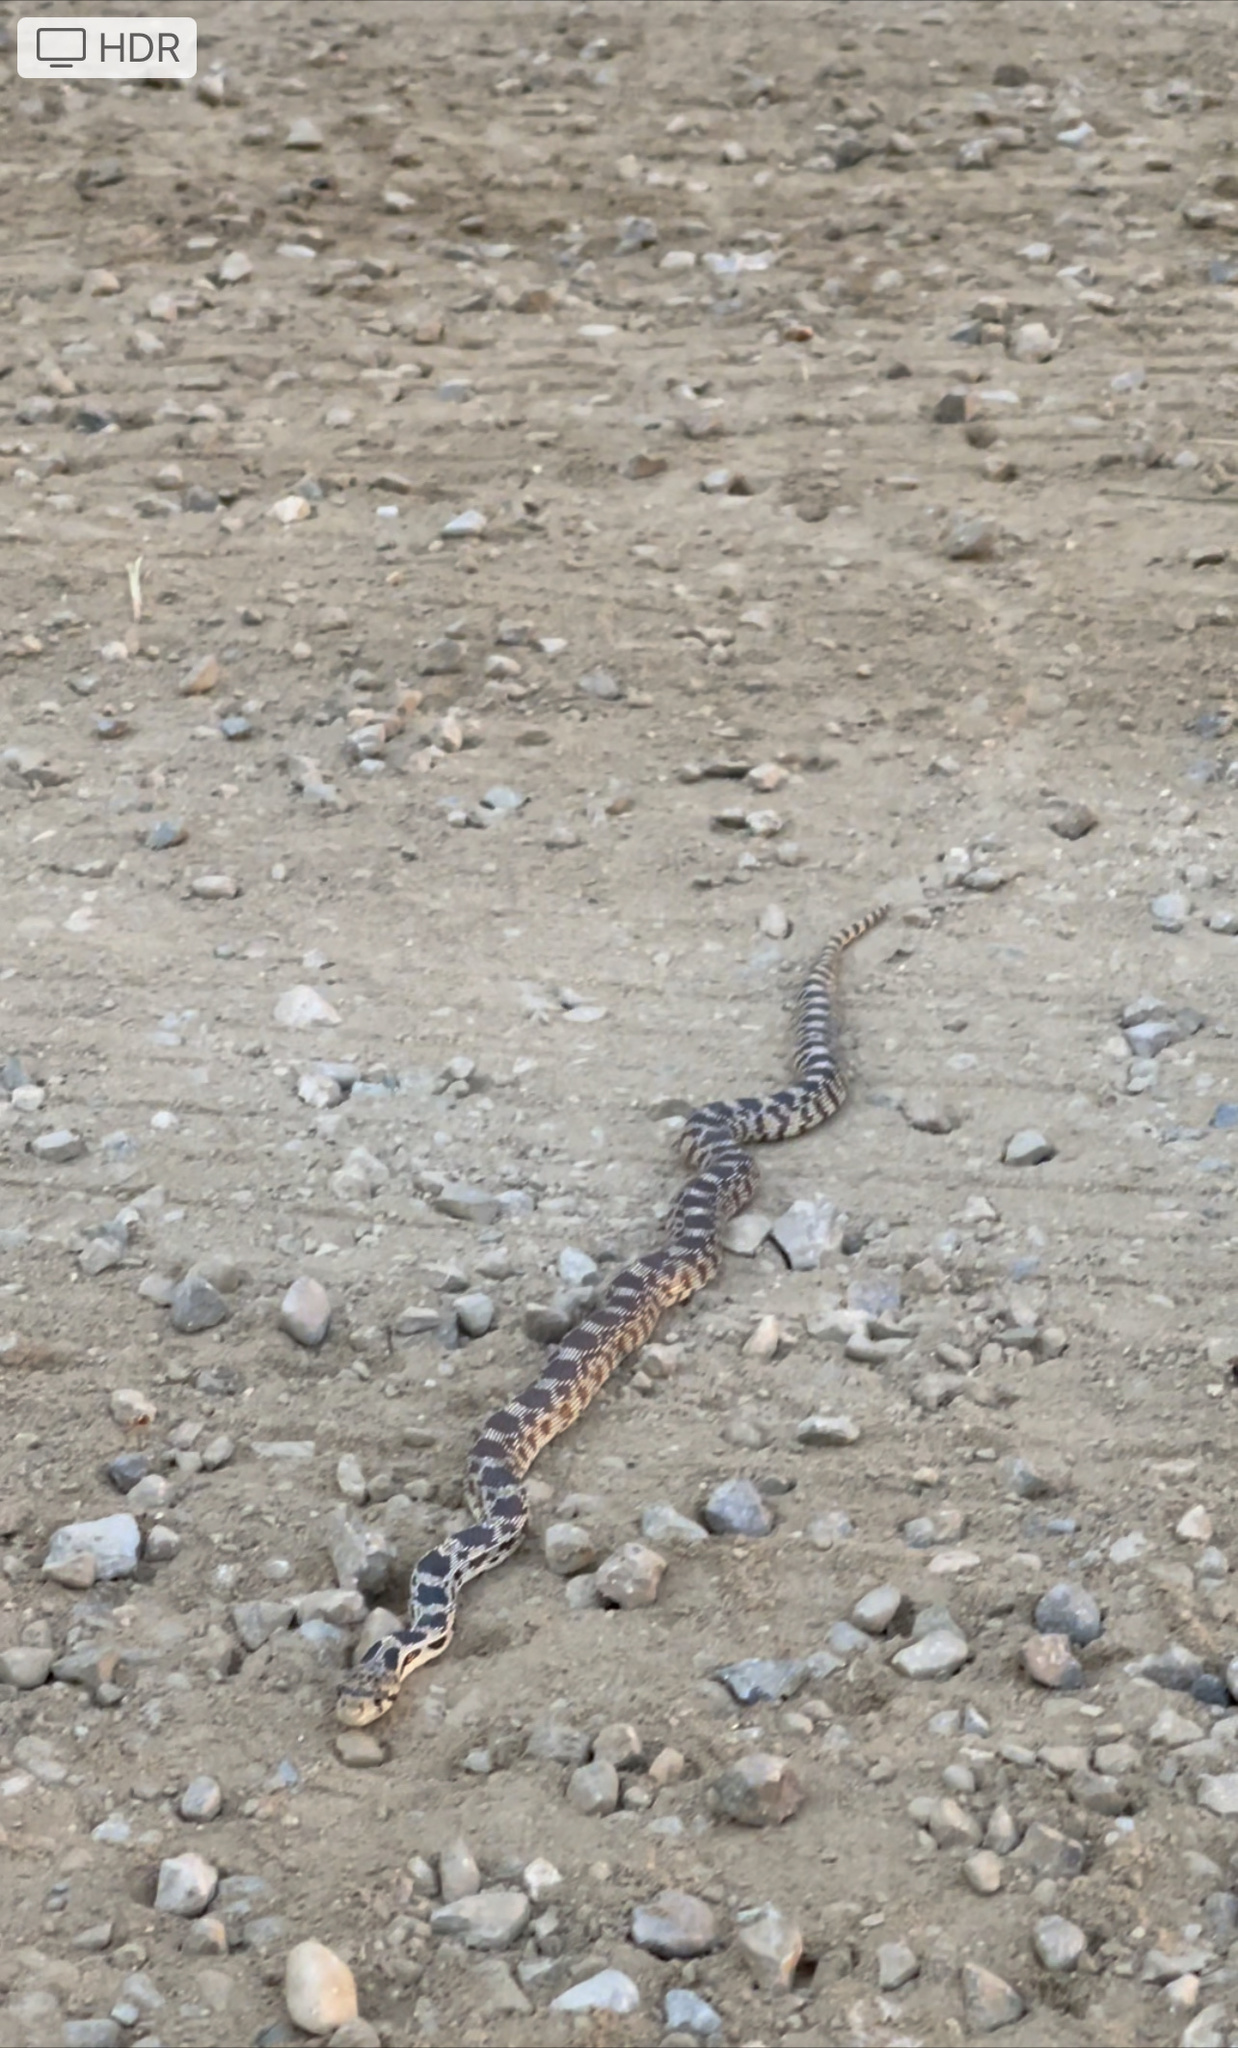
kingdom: Animalia
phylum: Chordata
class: Squamata
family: Colubridae
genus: Pituophis
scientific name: Pituophis catenifer
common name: Gopher snake
